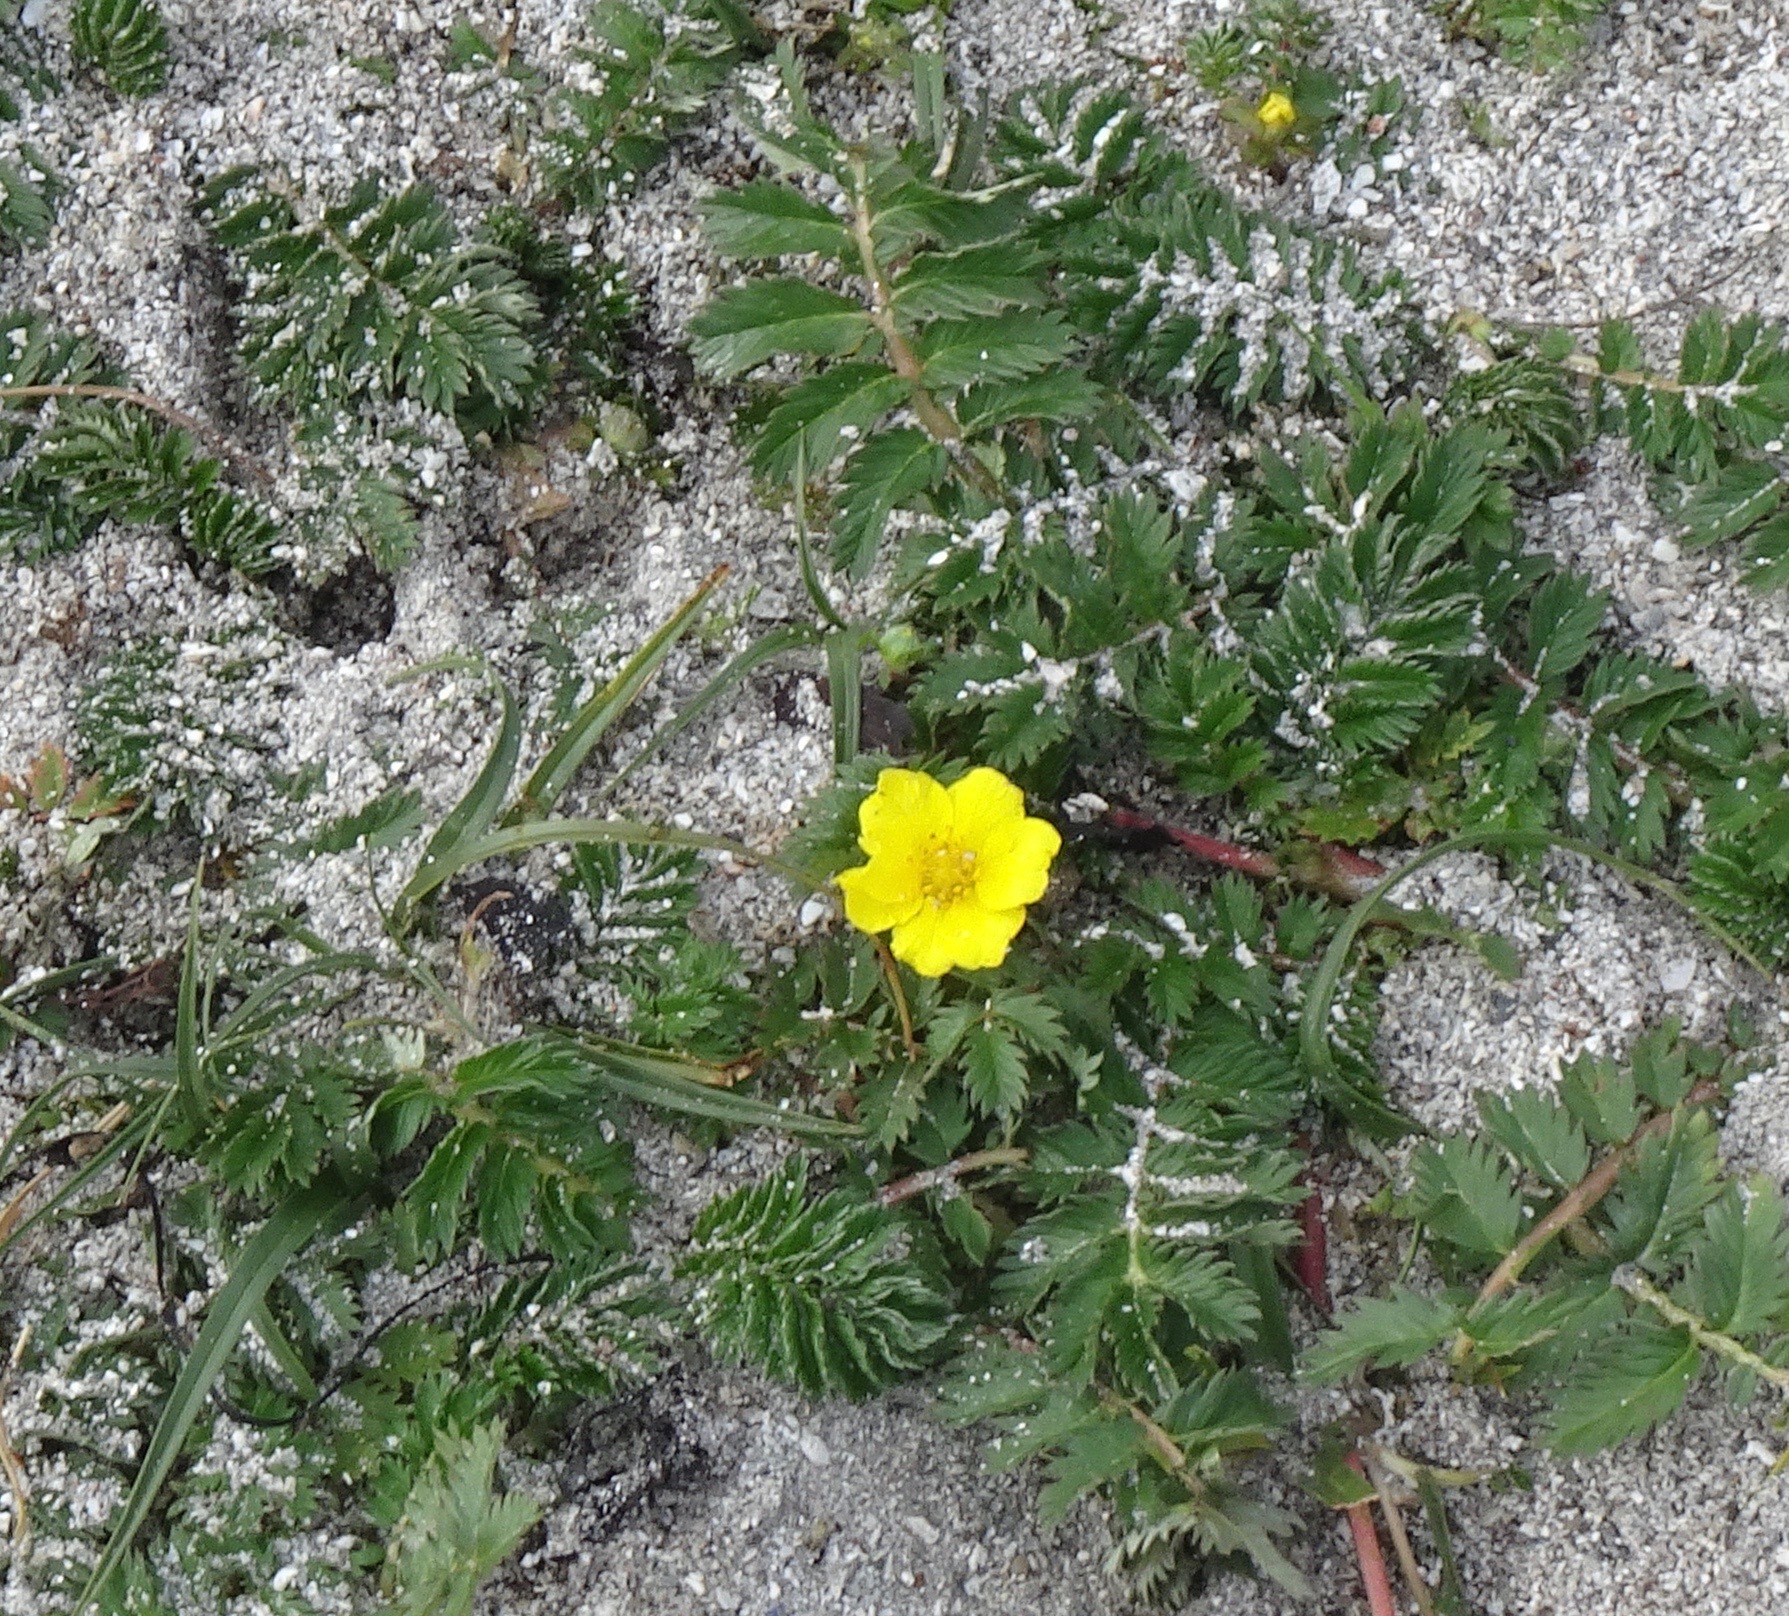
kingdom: Plantae
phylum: Tracheophyta
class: Magnoliopsida
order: Rosales
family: Rosaceae
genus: Argentina
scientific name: Argentina anserina
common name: Common silverweed
